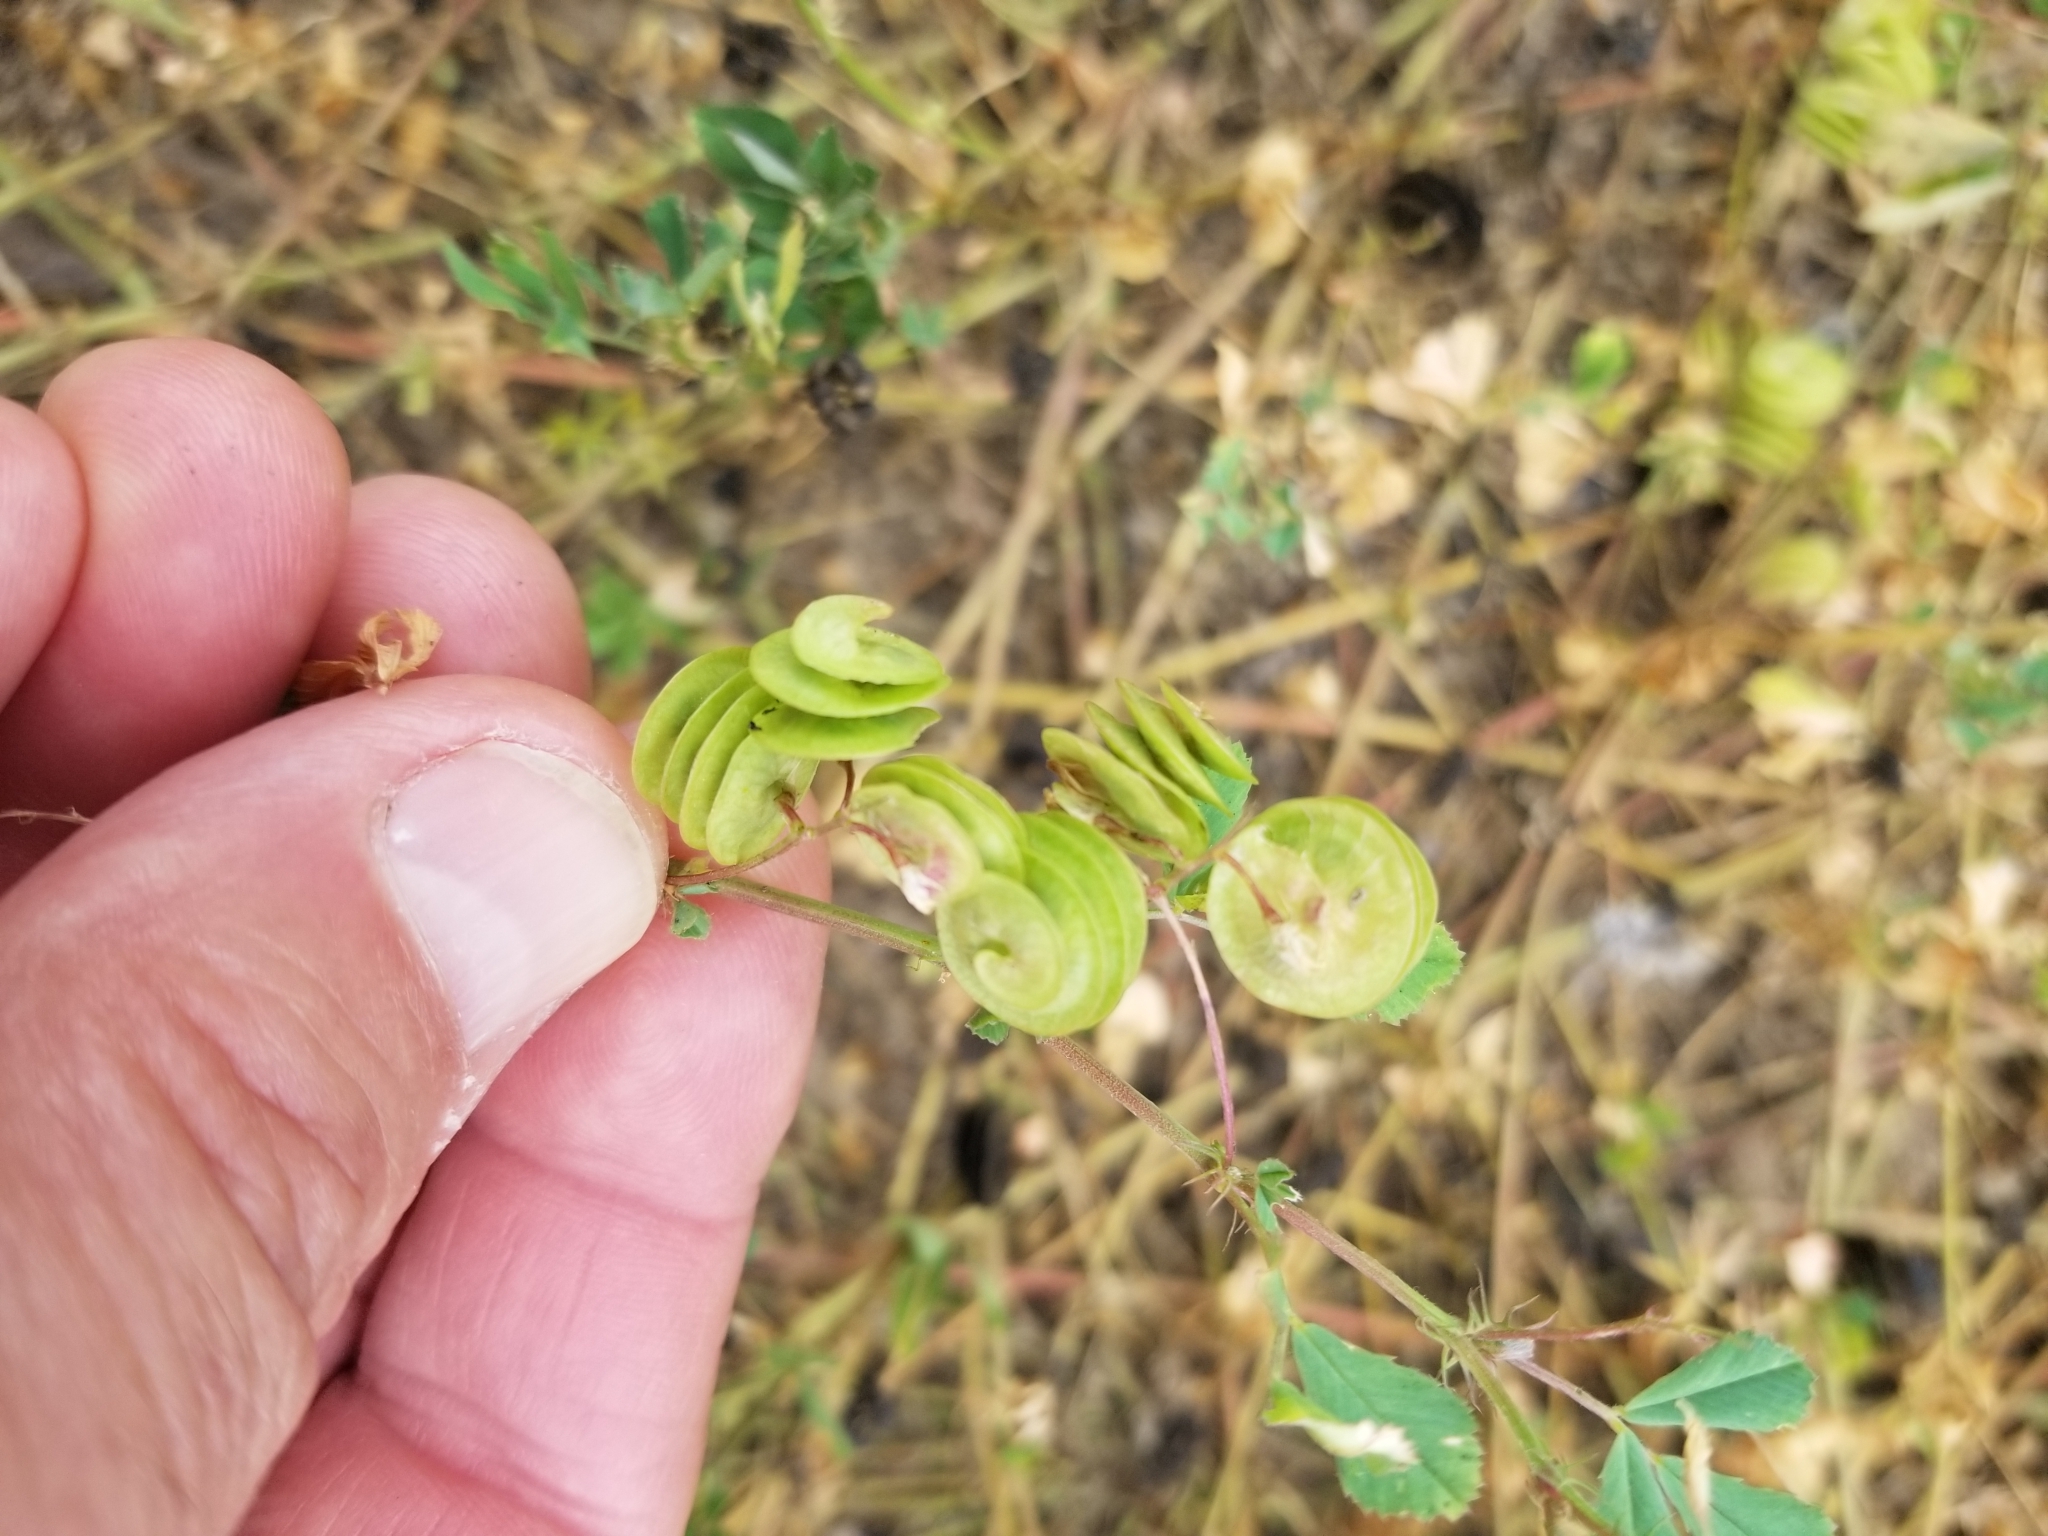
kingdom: Plantae
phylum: Tracheophyta
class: Magnoliopsida
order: Fabales
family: Fabaceae
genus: Medicago
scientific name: Medicago orbicularis
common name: Button medick
